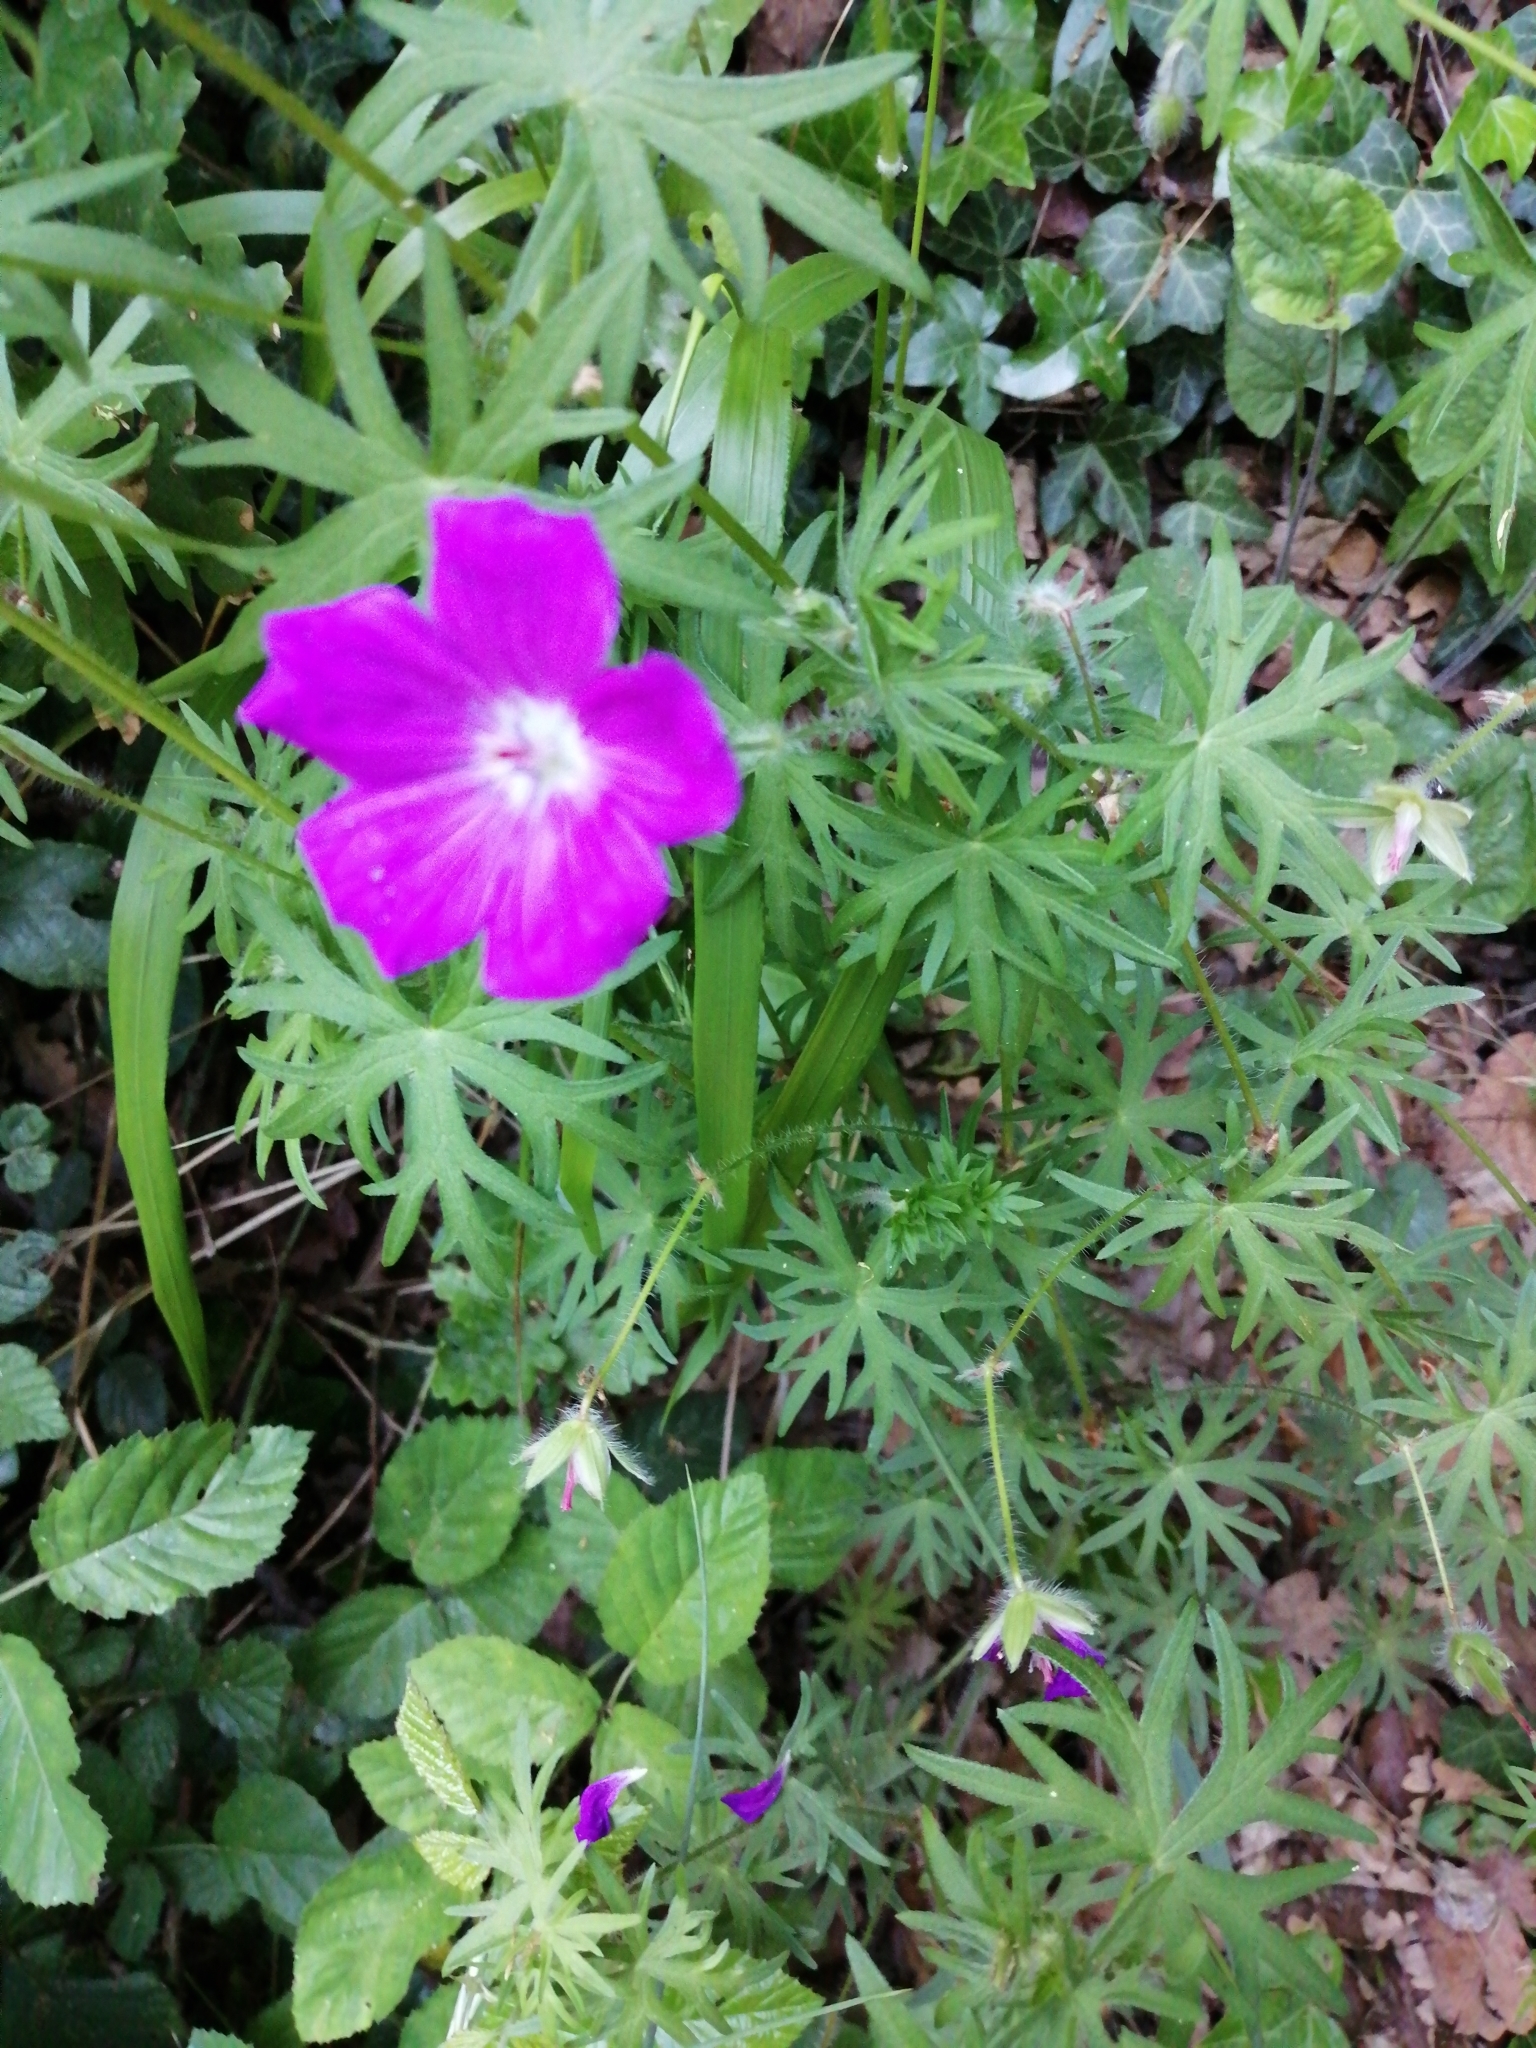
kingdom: Plantae
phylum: Tracheophyta
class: Magnoliopsida
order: Geraniales
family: Geraniaceae
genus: Geranium
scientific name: Geranium sanguineum
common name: Bloody crane's-bill
